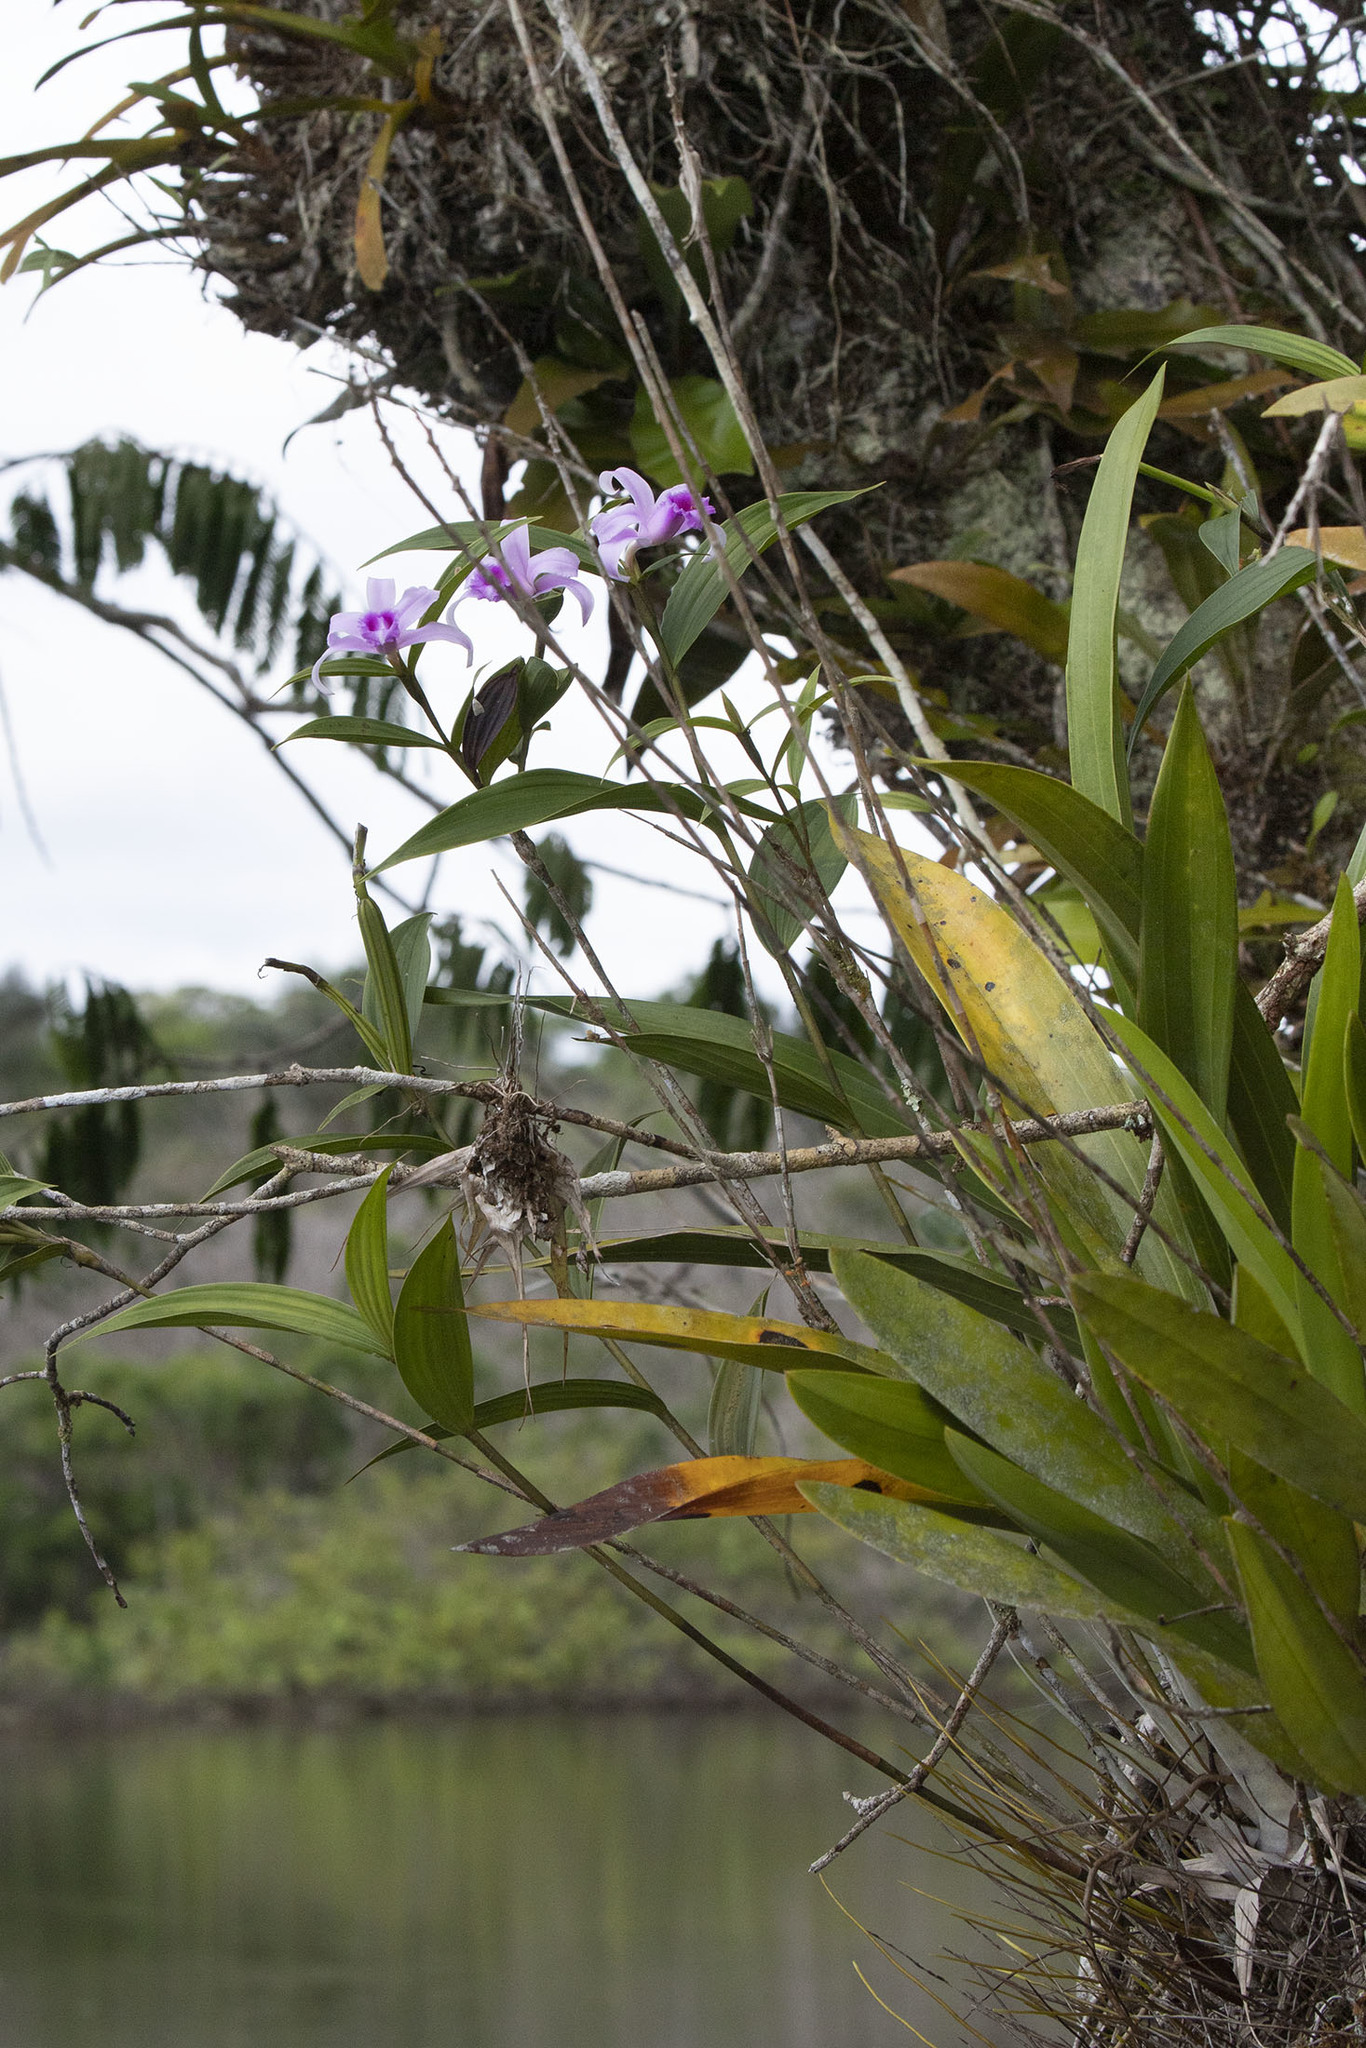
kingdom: Plantae
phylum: Tracheophyta
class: Liliopsida
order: Asparagales
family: Orchidaceae
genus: Sobralia
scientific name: Sobralia decora
